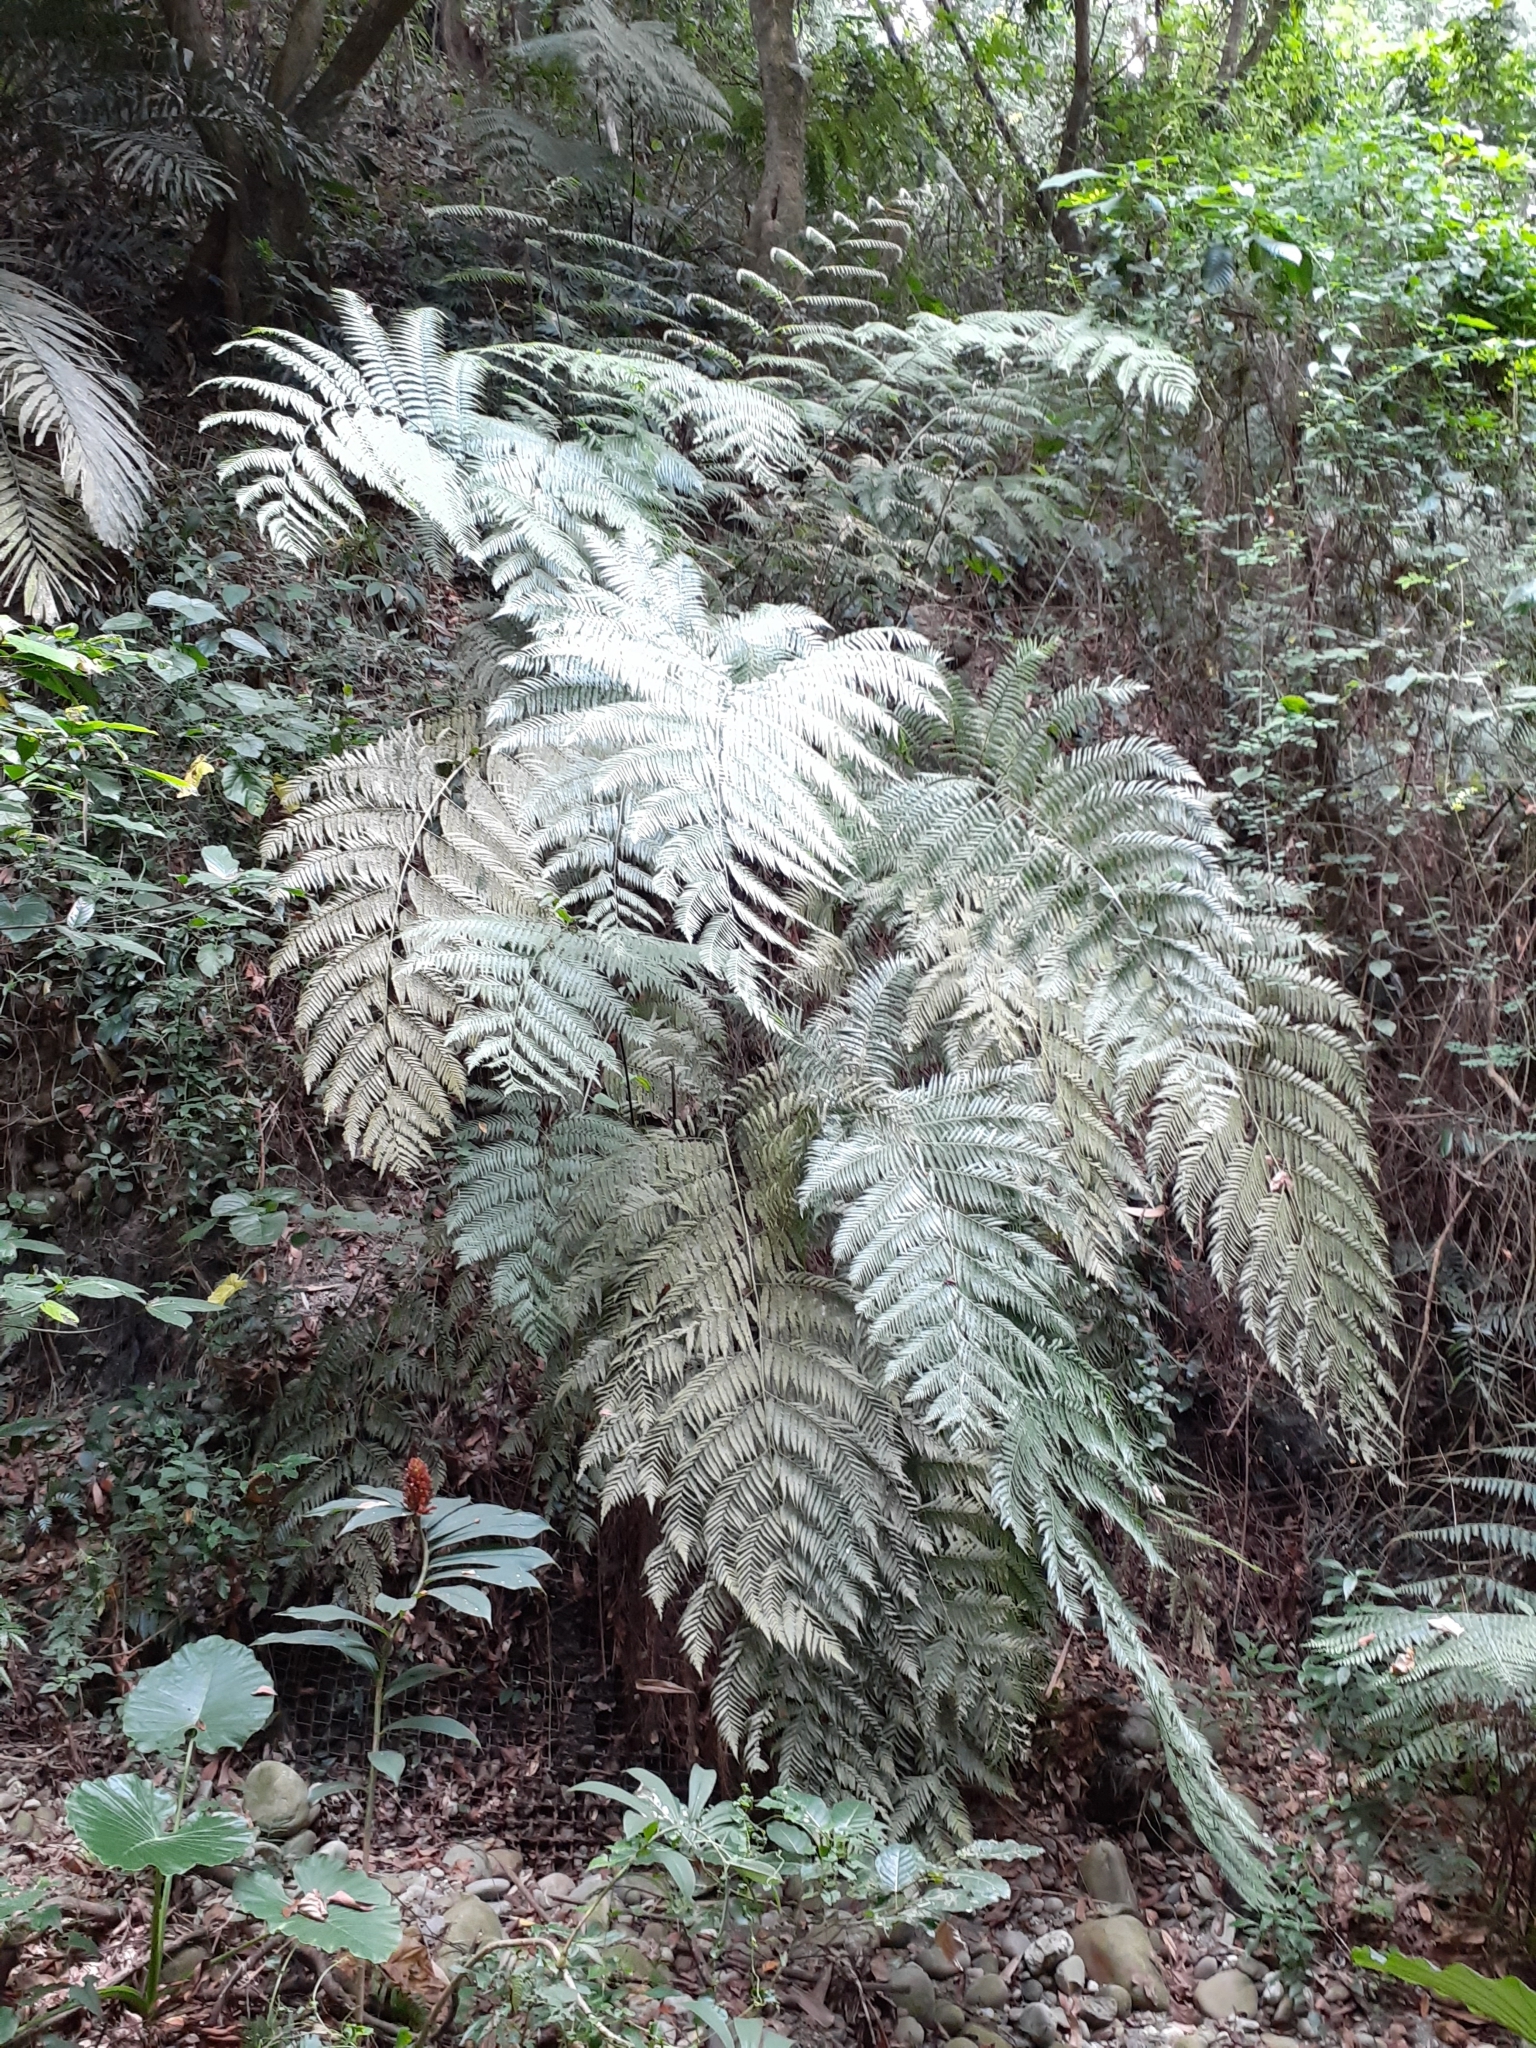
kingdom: Plantae
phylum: Tracheophyta
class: Polypodiopsida
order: Cyatheales
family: Cibotiaceae
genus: Cibotium
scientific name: Cibotium taiwanense
